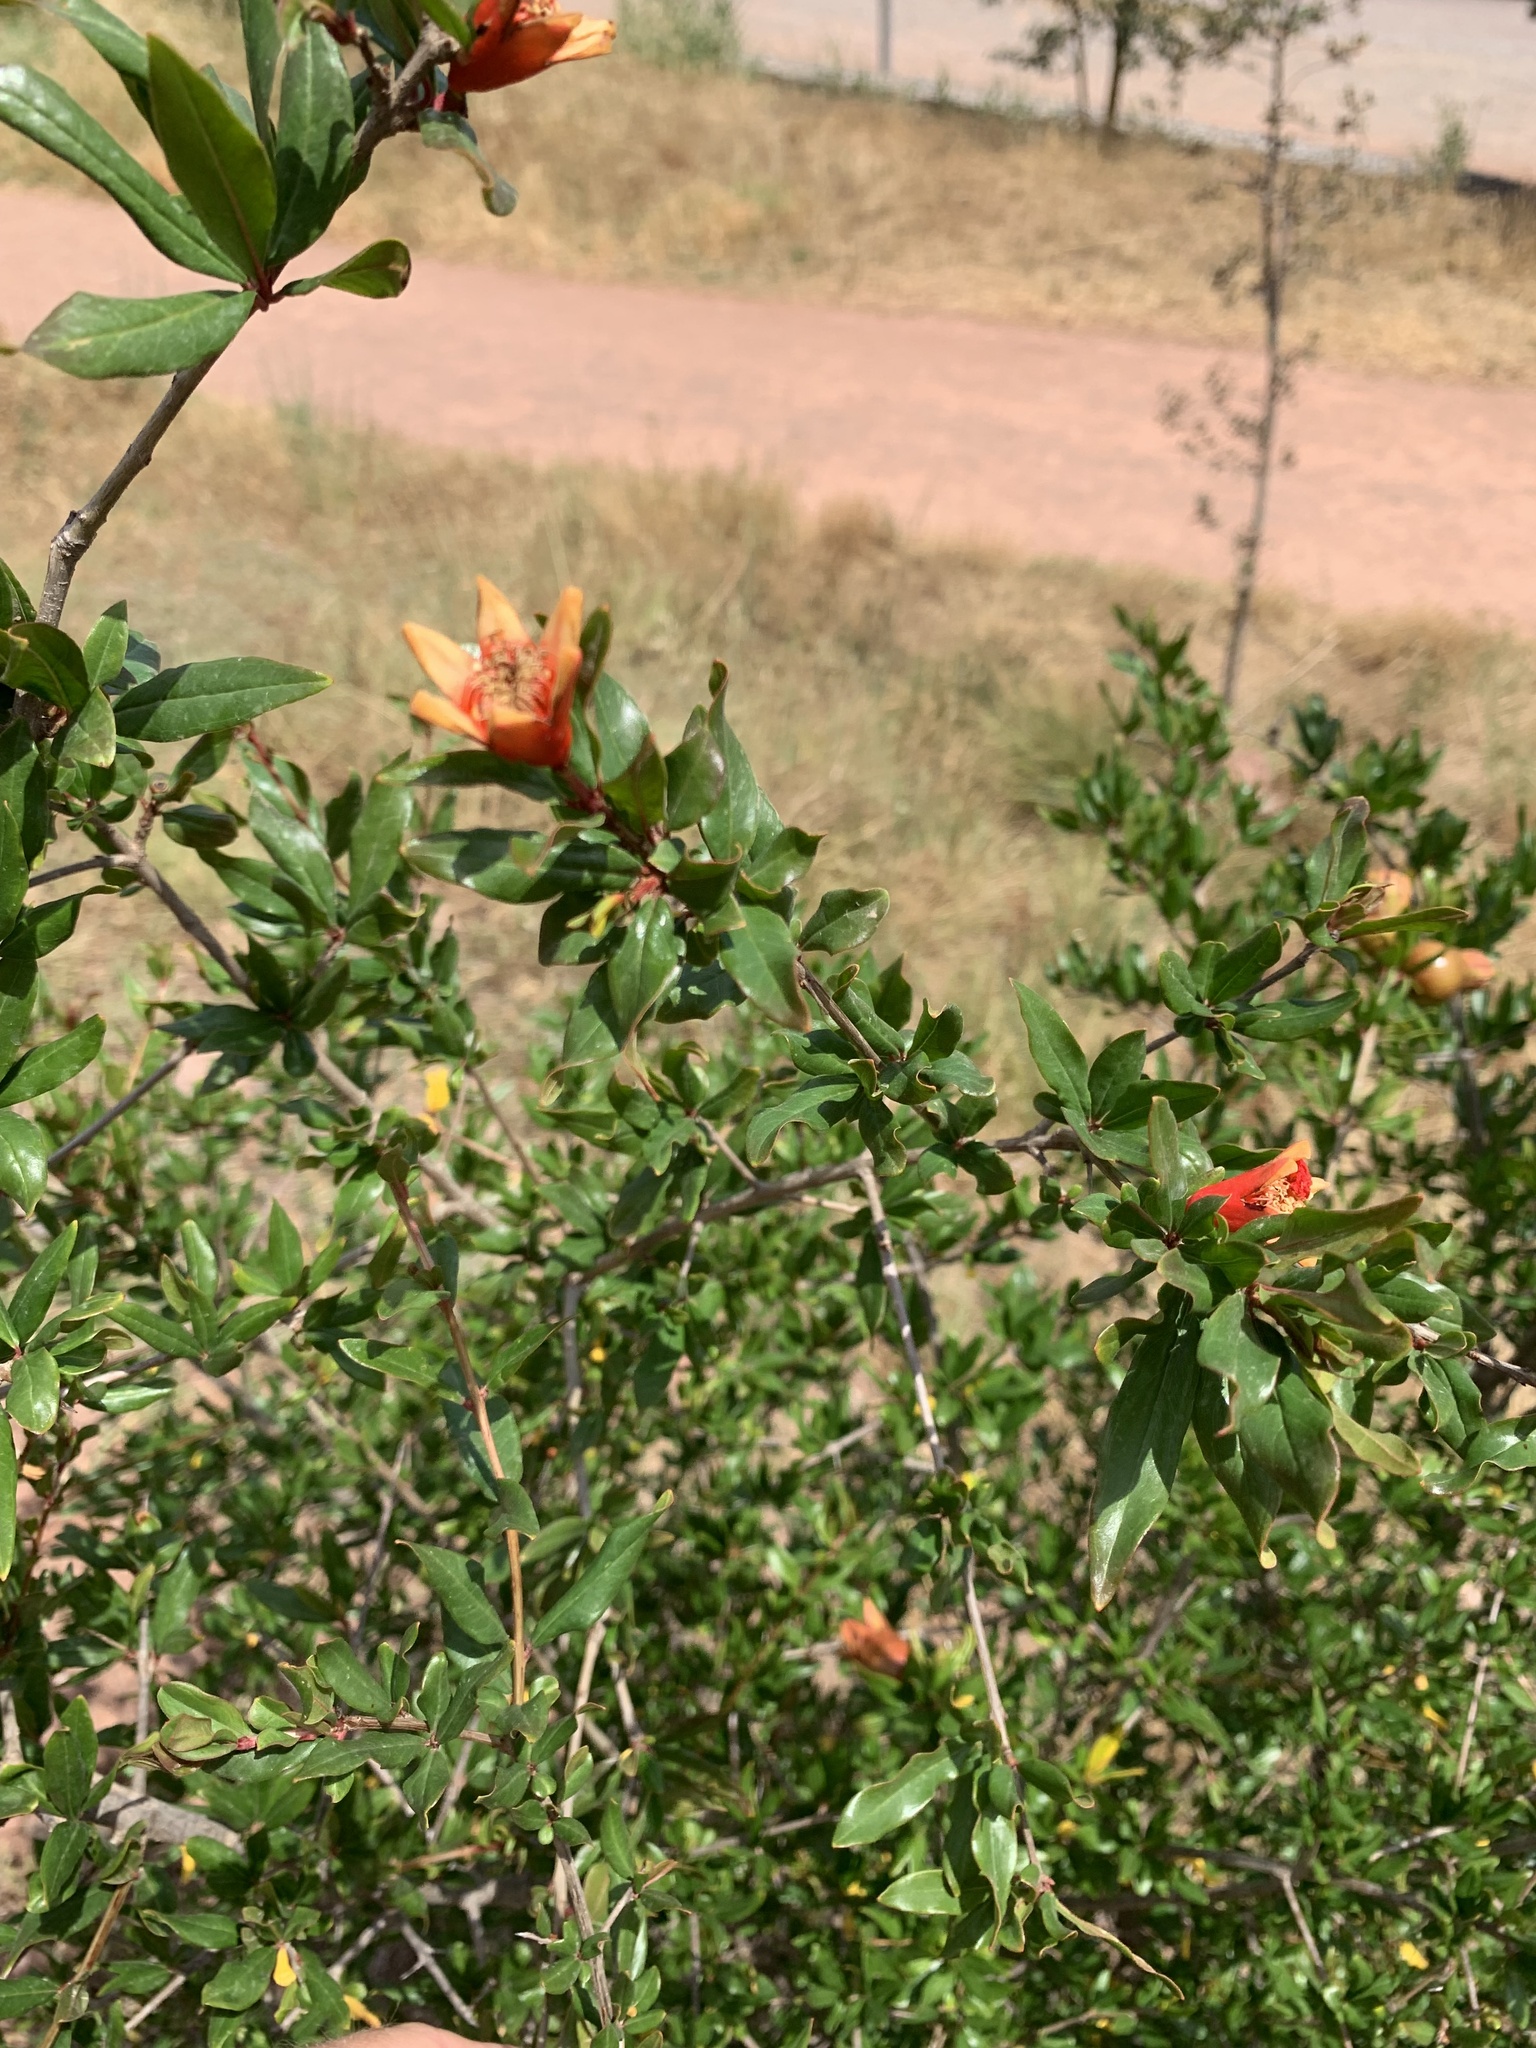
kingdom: Plantae
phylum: Tracheophyta
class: Magnoliopsida
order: Myrtales
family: Lythraceae
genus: Punica
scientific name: Punica granatum
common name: Pomegranate
